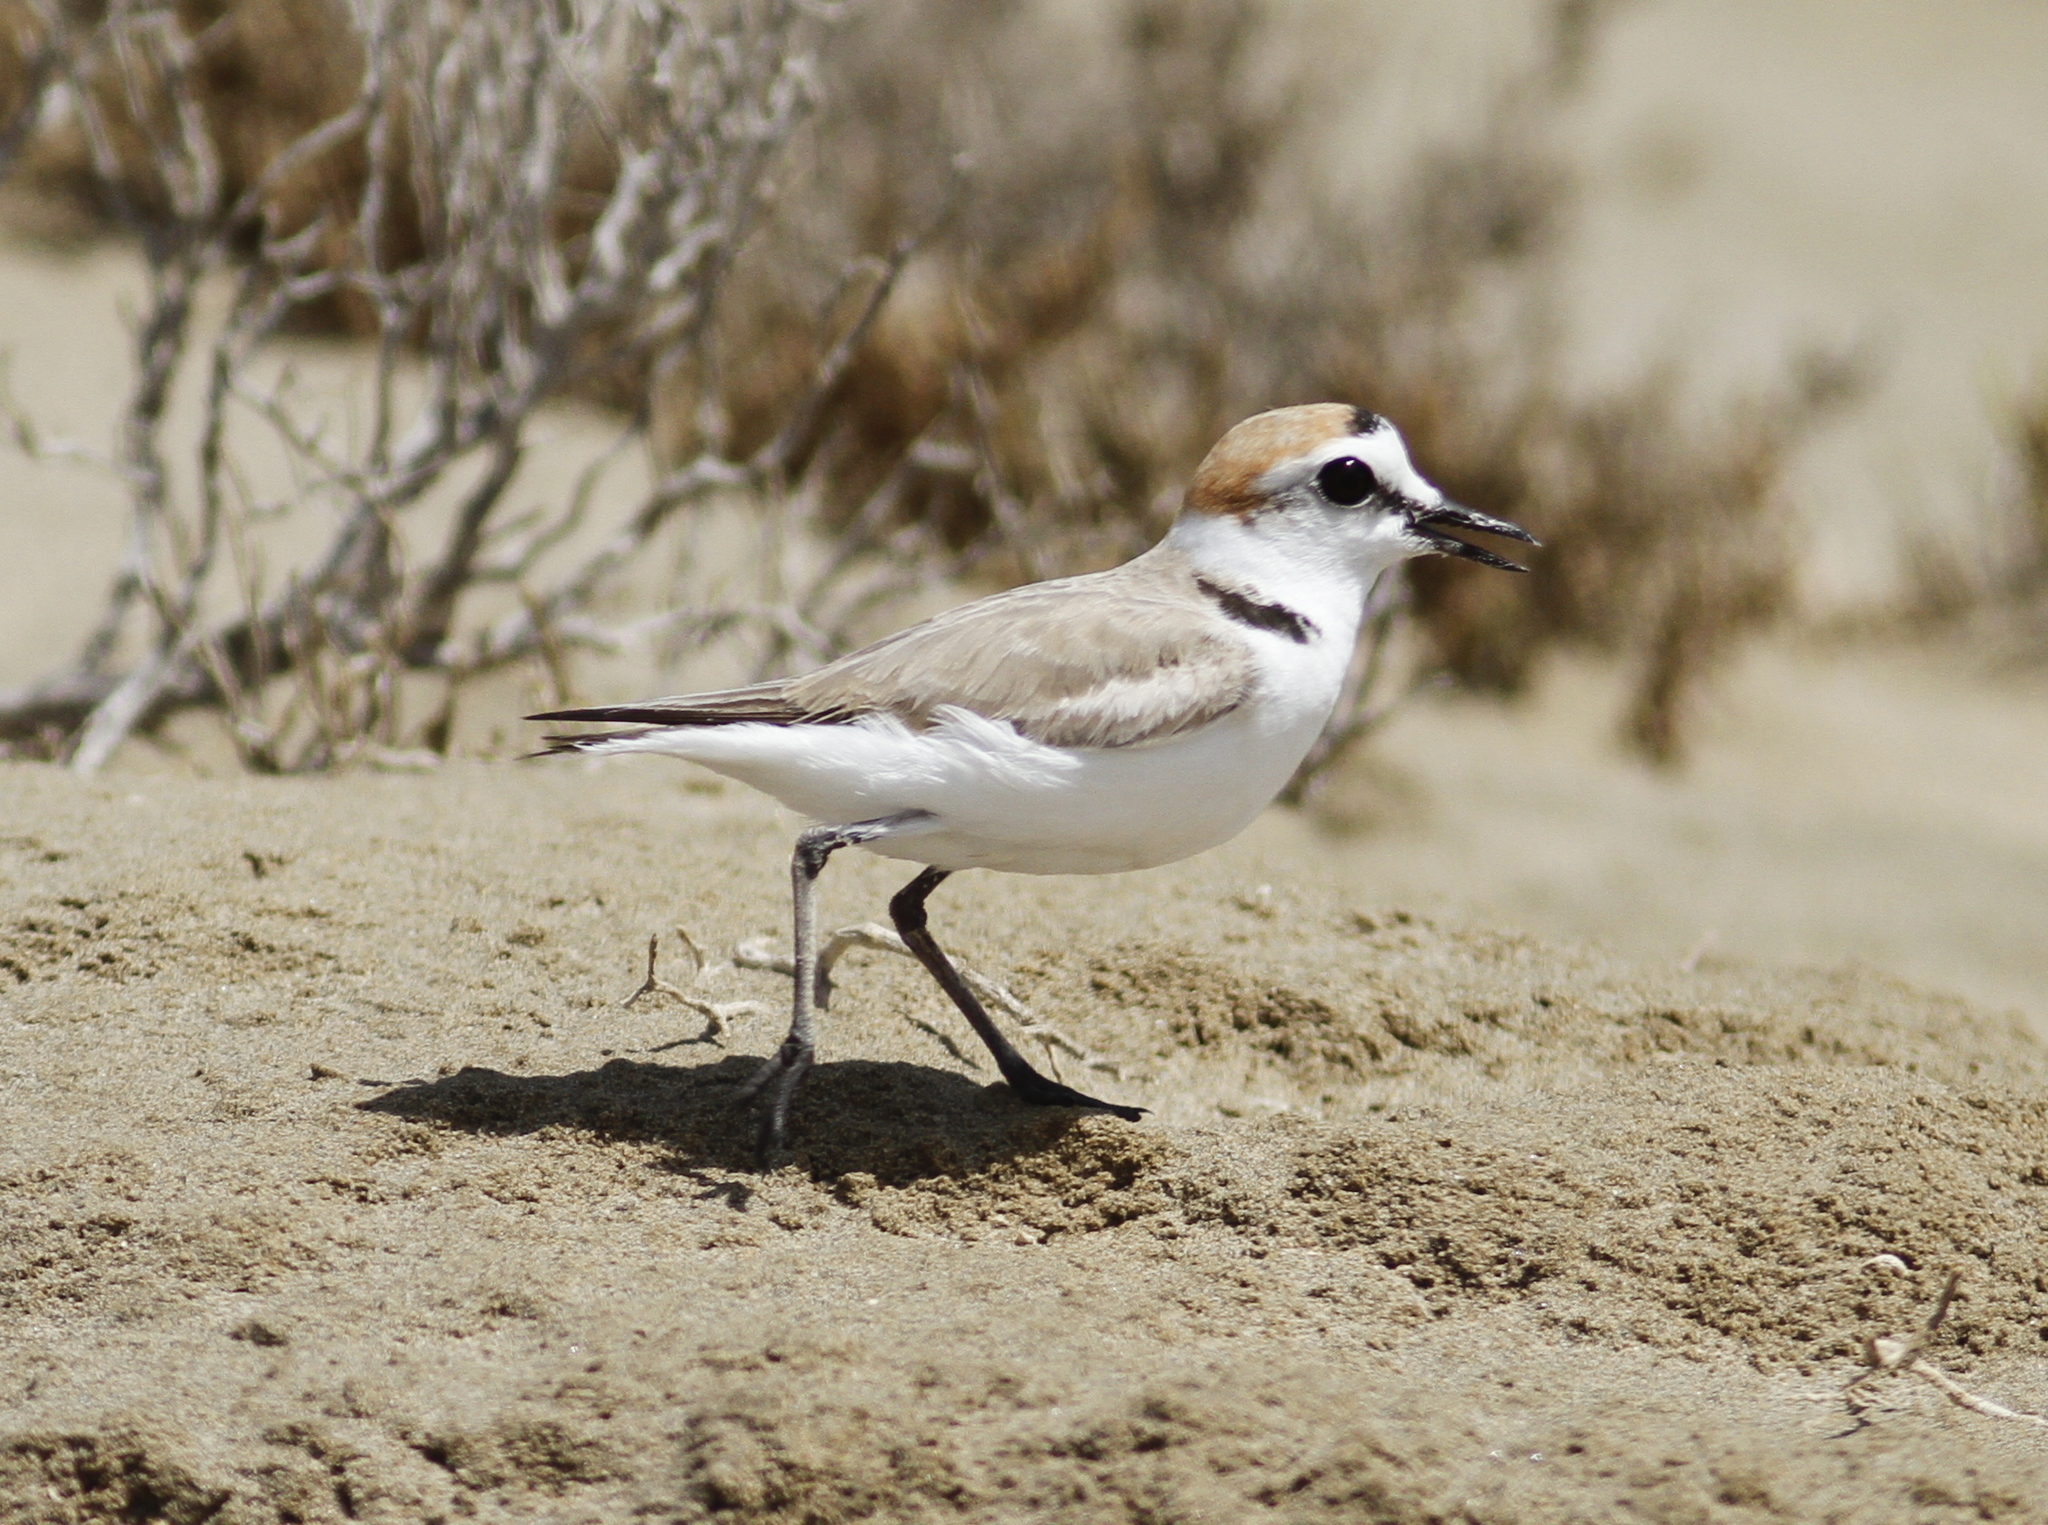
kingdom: Animalia
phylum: Chordata
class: Aves
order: Charadriiformes
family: Charadriidae
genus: Charadrius
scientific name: Charadrius alexandrinus
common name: Kentish plover
